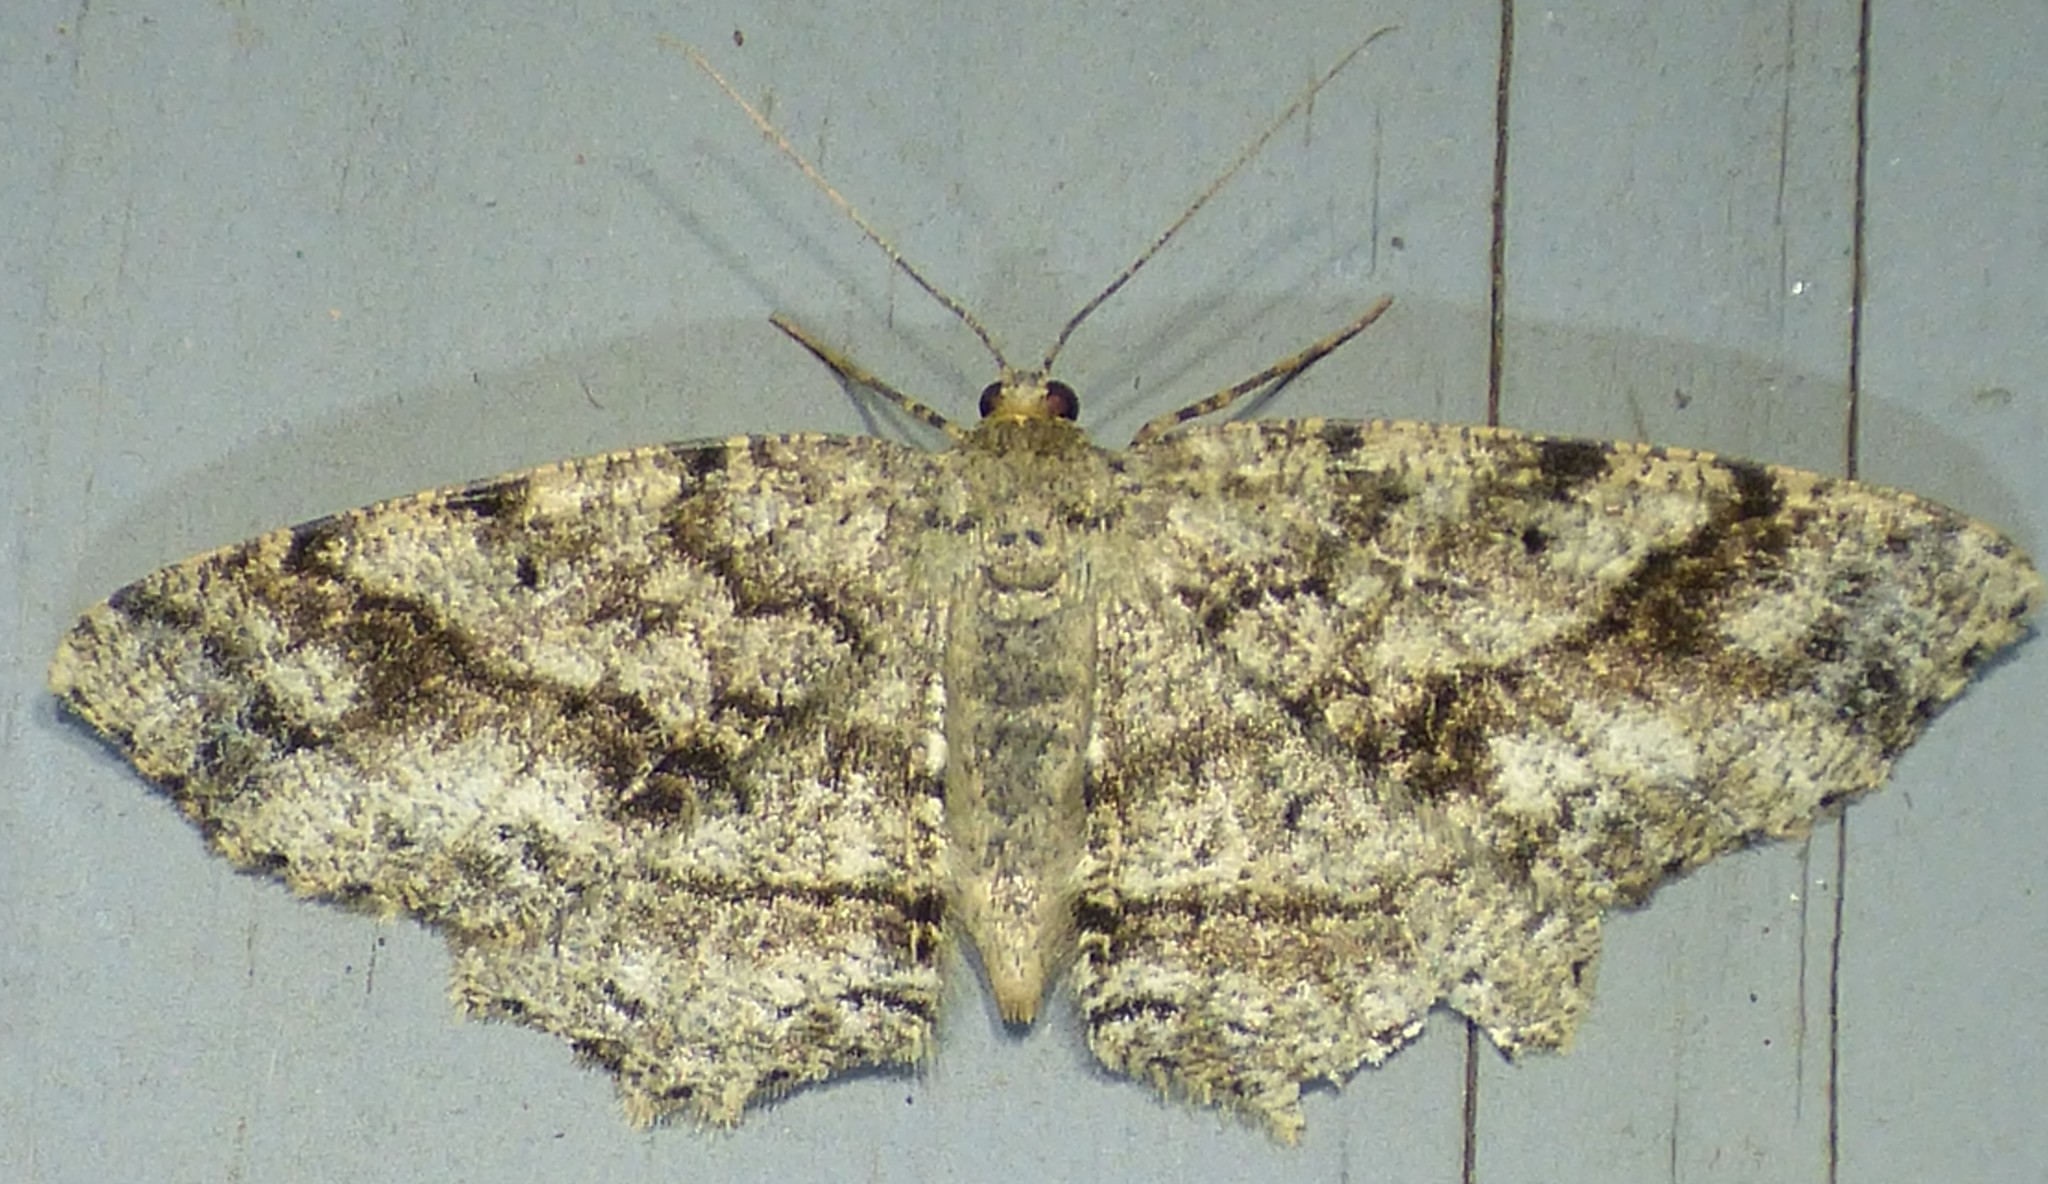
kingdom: Animalia
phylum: Arthropoda
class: Insecta
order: Lepidoptera
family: Geometridae
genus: Melanolophia
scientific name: Melanolophia canadaria
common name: Canadian melanolophia
